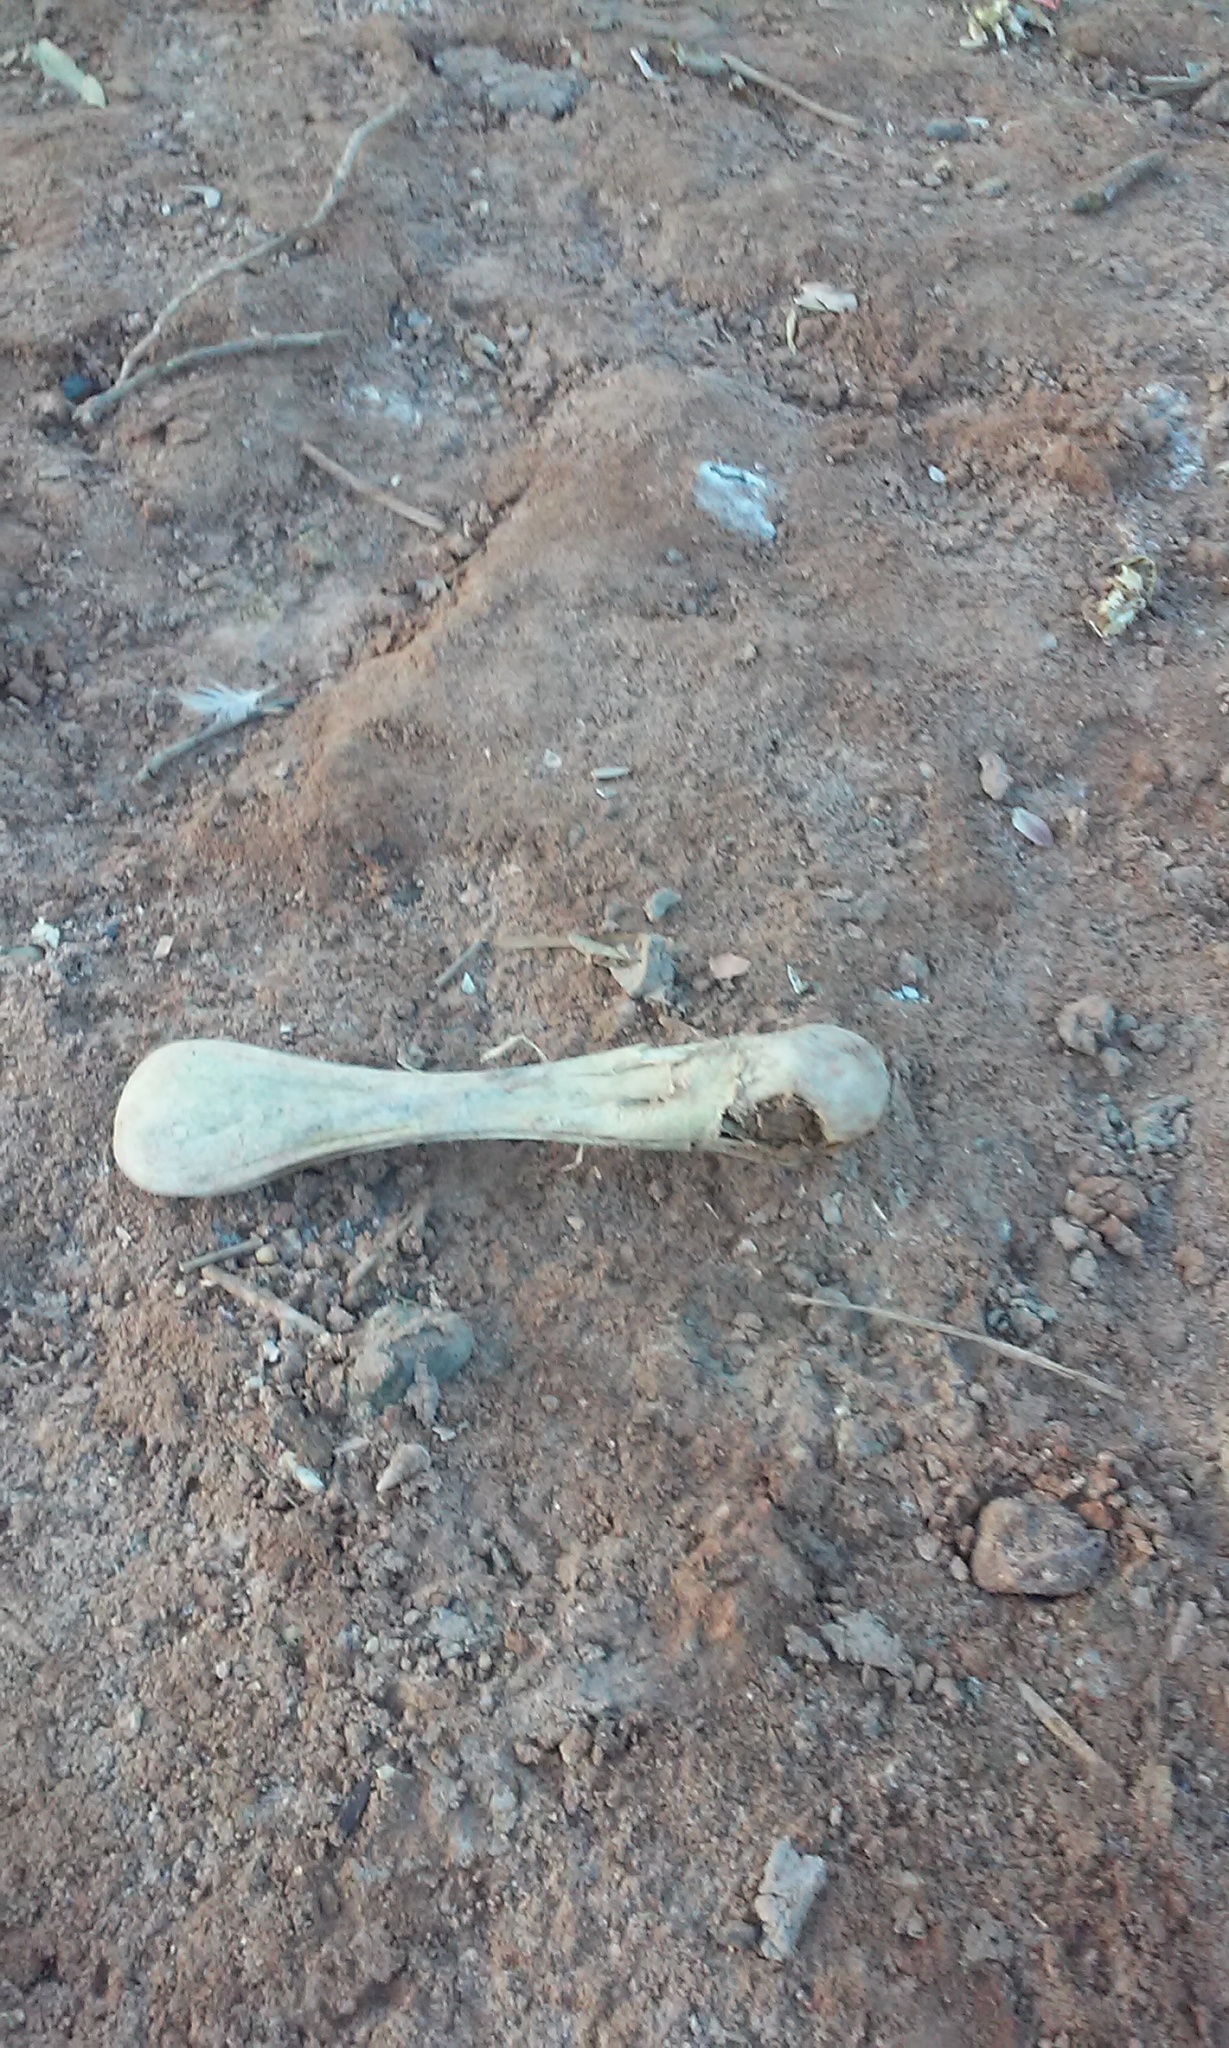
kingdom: Animalia
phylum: Chordata
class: Aves
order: Pelecaniformes
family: Threskiornithidae
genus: Platalea
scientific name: Platalea ajaja
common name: Roseate spoonbill
